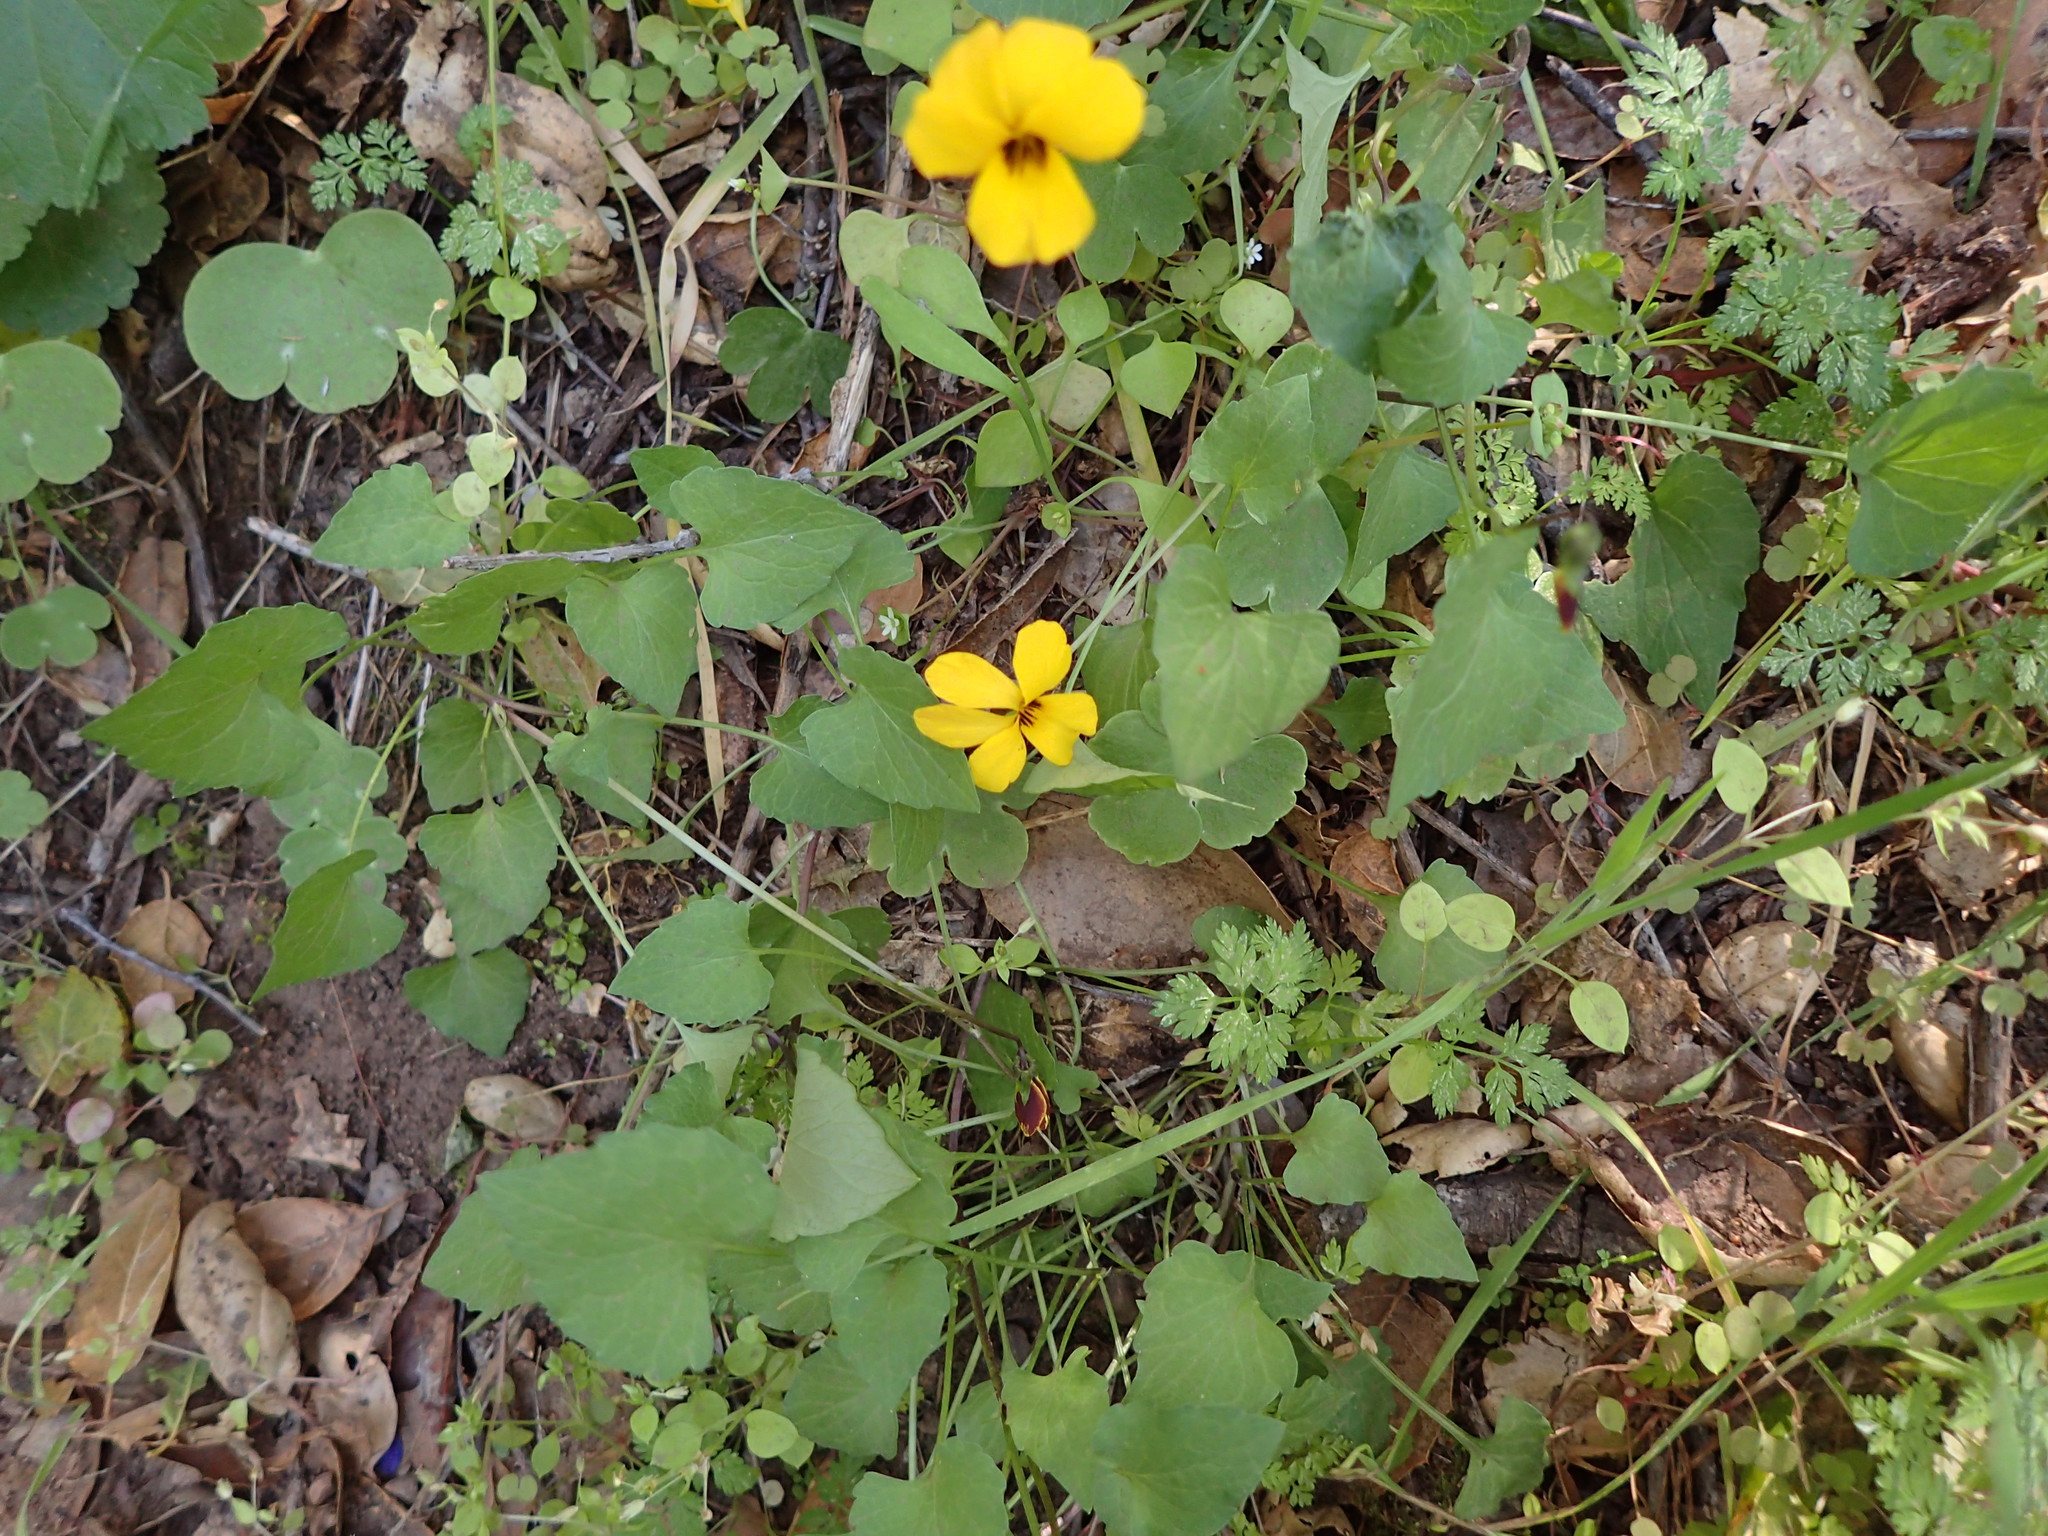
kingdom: Plantae
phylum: Tracheophyta
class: Magnoliopsida
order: Malpighiales
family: Violaceae
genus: Viola
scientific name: Viola pedunculata
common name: California golden violet
